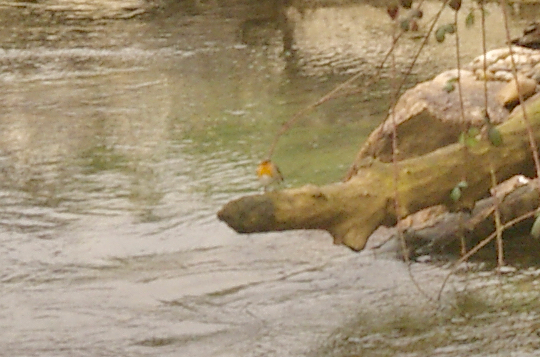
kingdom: Animalia
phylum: Chordata
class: Aves
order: Passeriformes
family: Muscicapidae
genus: Erithacus
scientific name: Erithacus rubecula
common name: European robin
